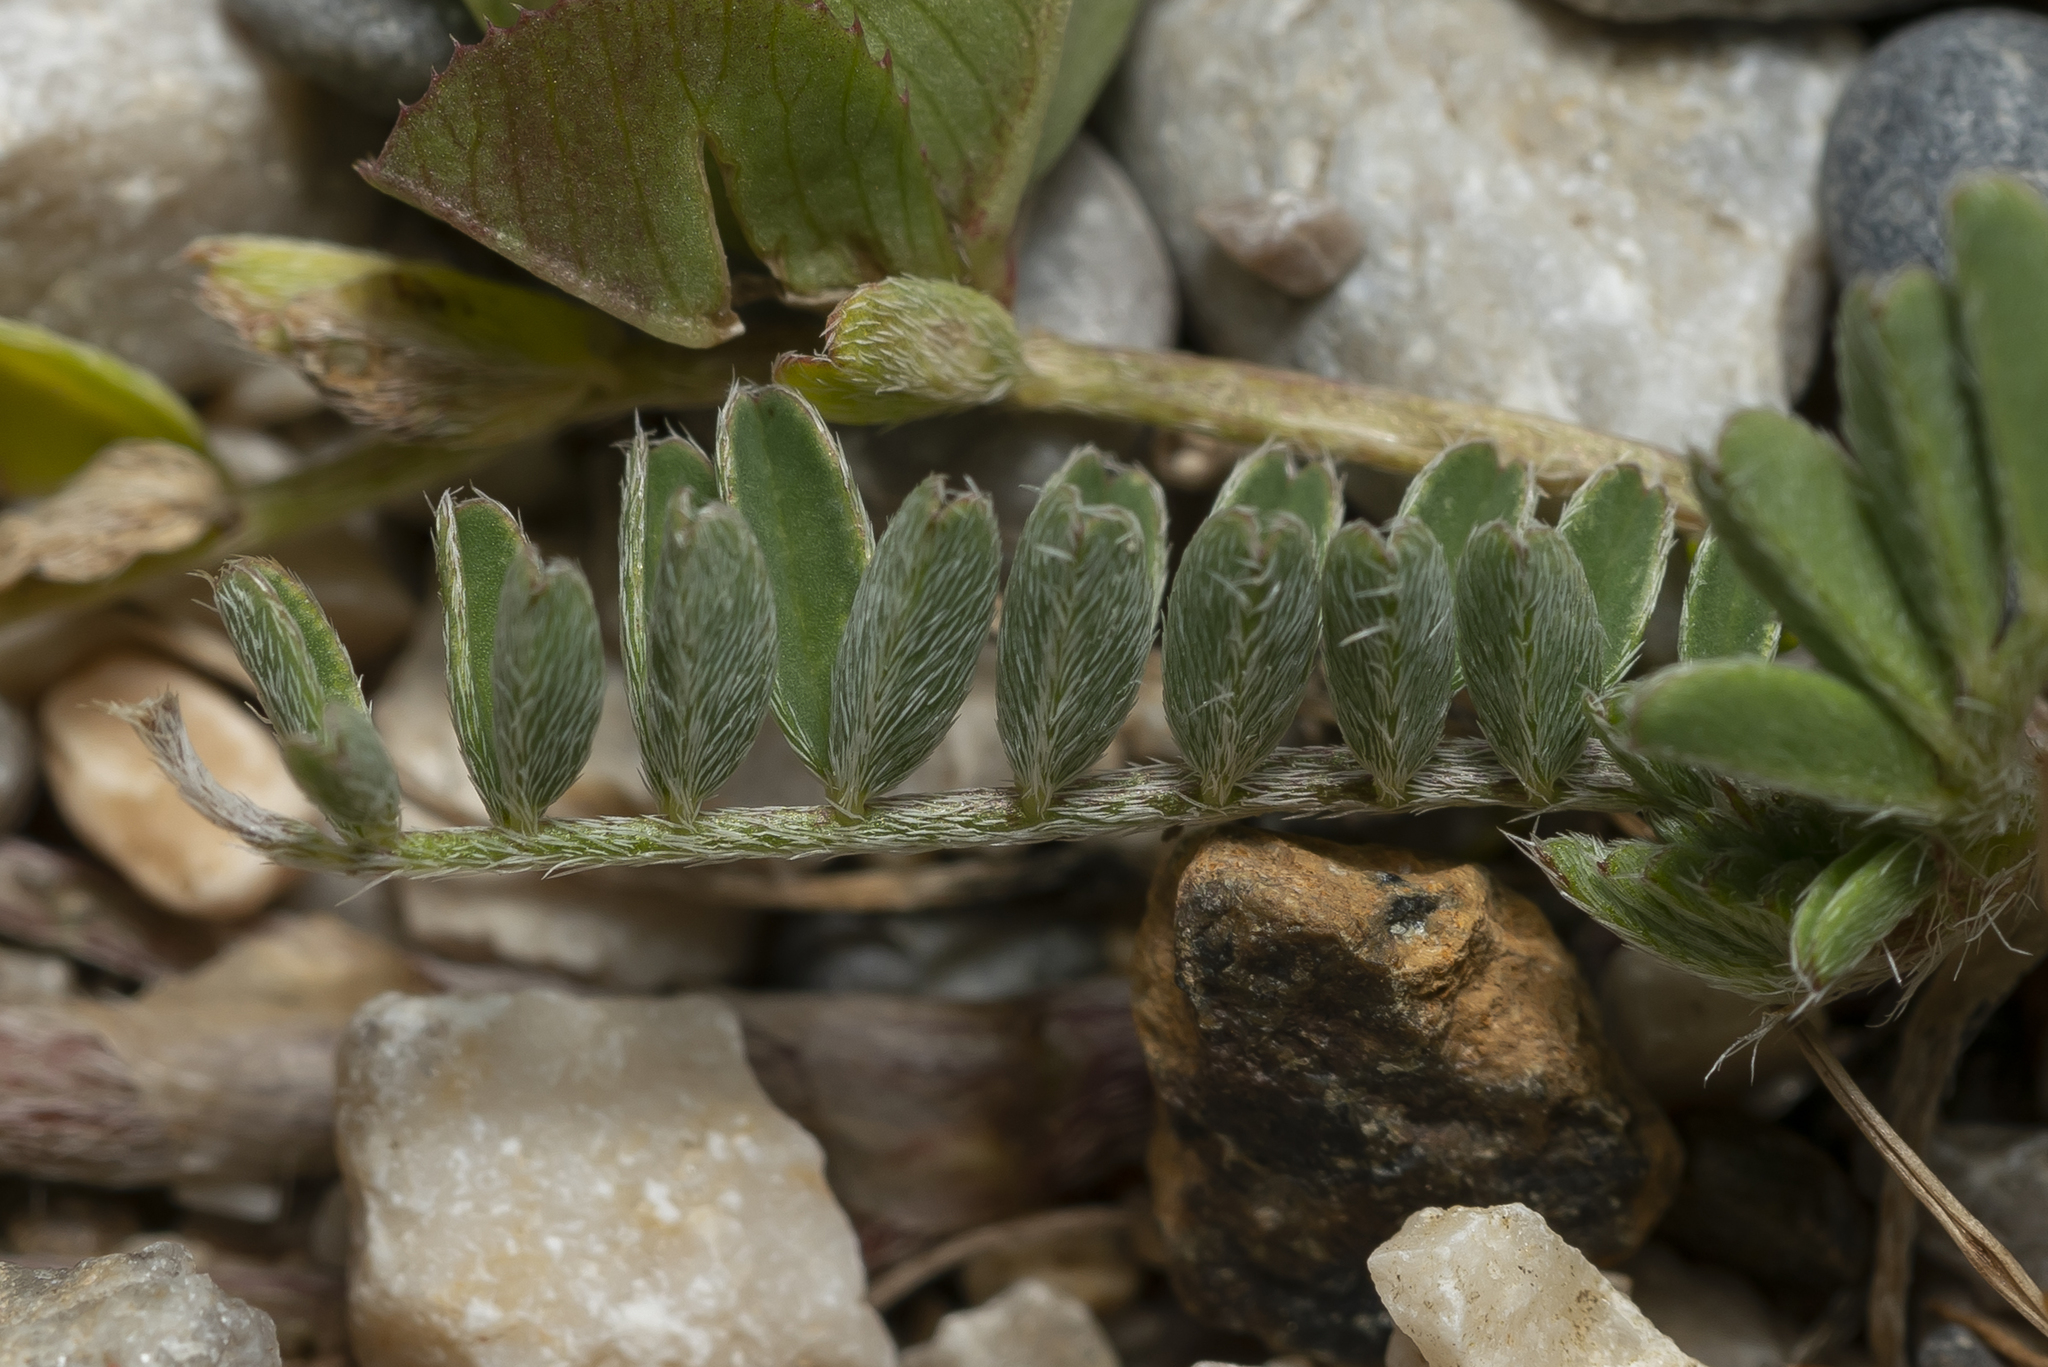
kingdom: Plantae
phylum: Tracheophyta
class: Magnoliopsida
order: Fabales
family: Fabaceae
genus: Astragalus
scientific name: Astragalus hamosus
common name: European milkvetch
